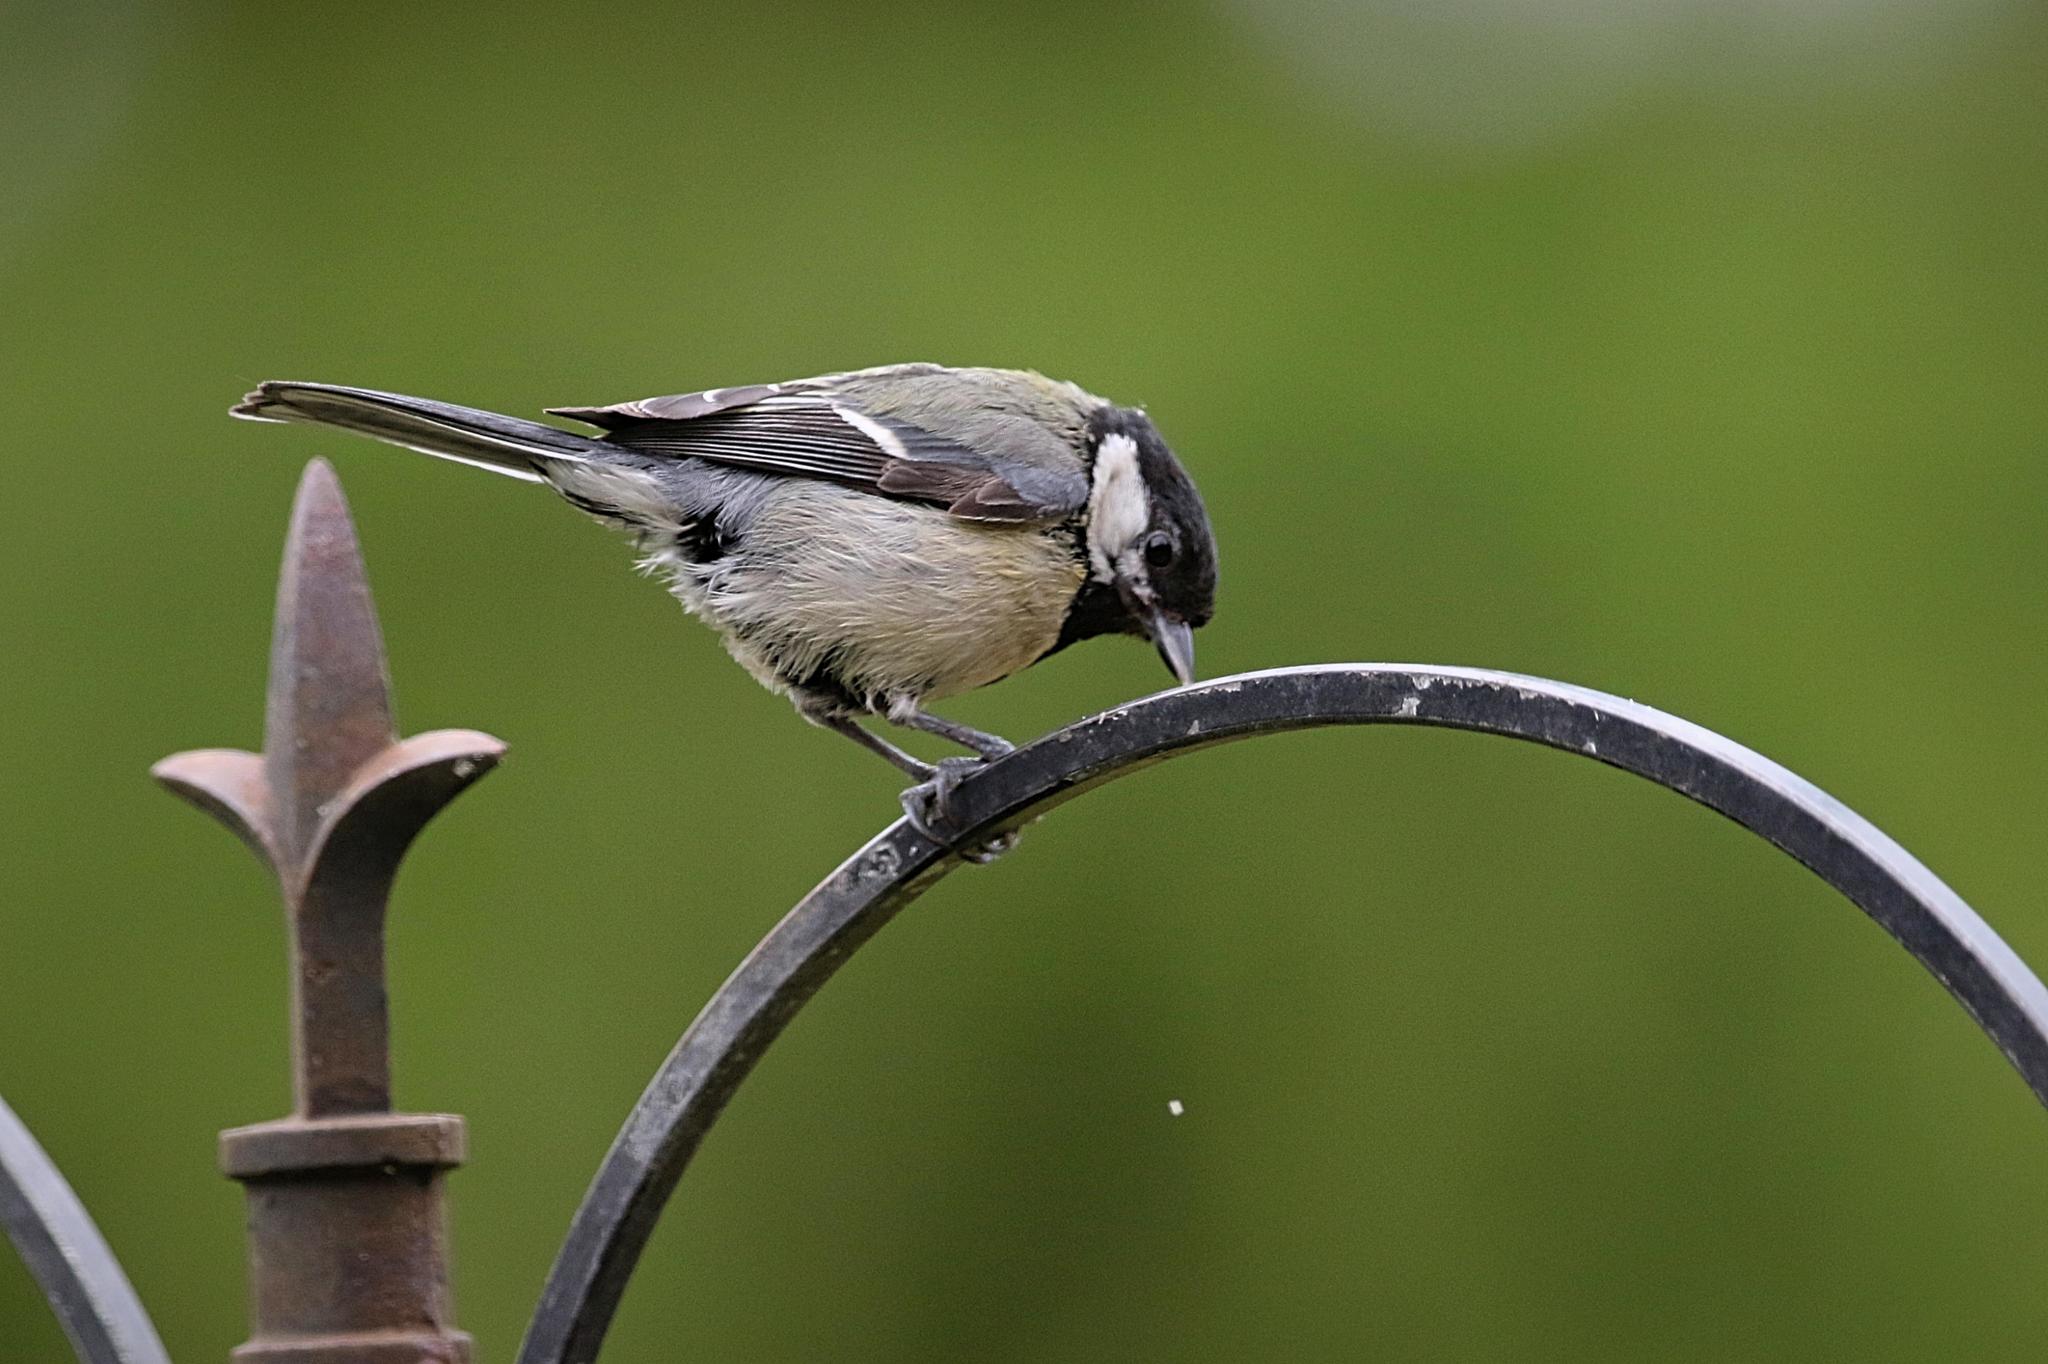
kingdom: Animalia
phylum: Chordata
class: Aves
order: Passeriformes
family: Paridae
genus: Parus
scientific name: Parus major
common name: Great tit
